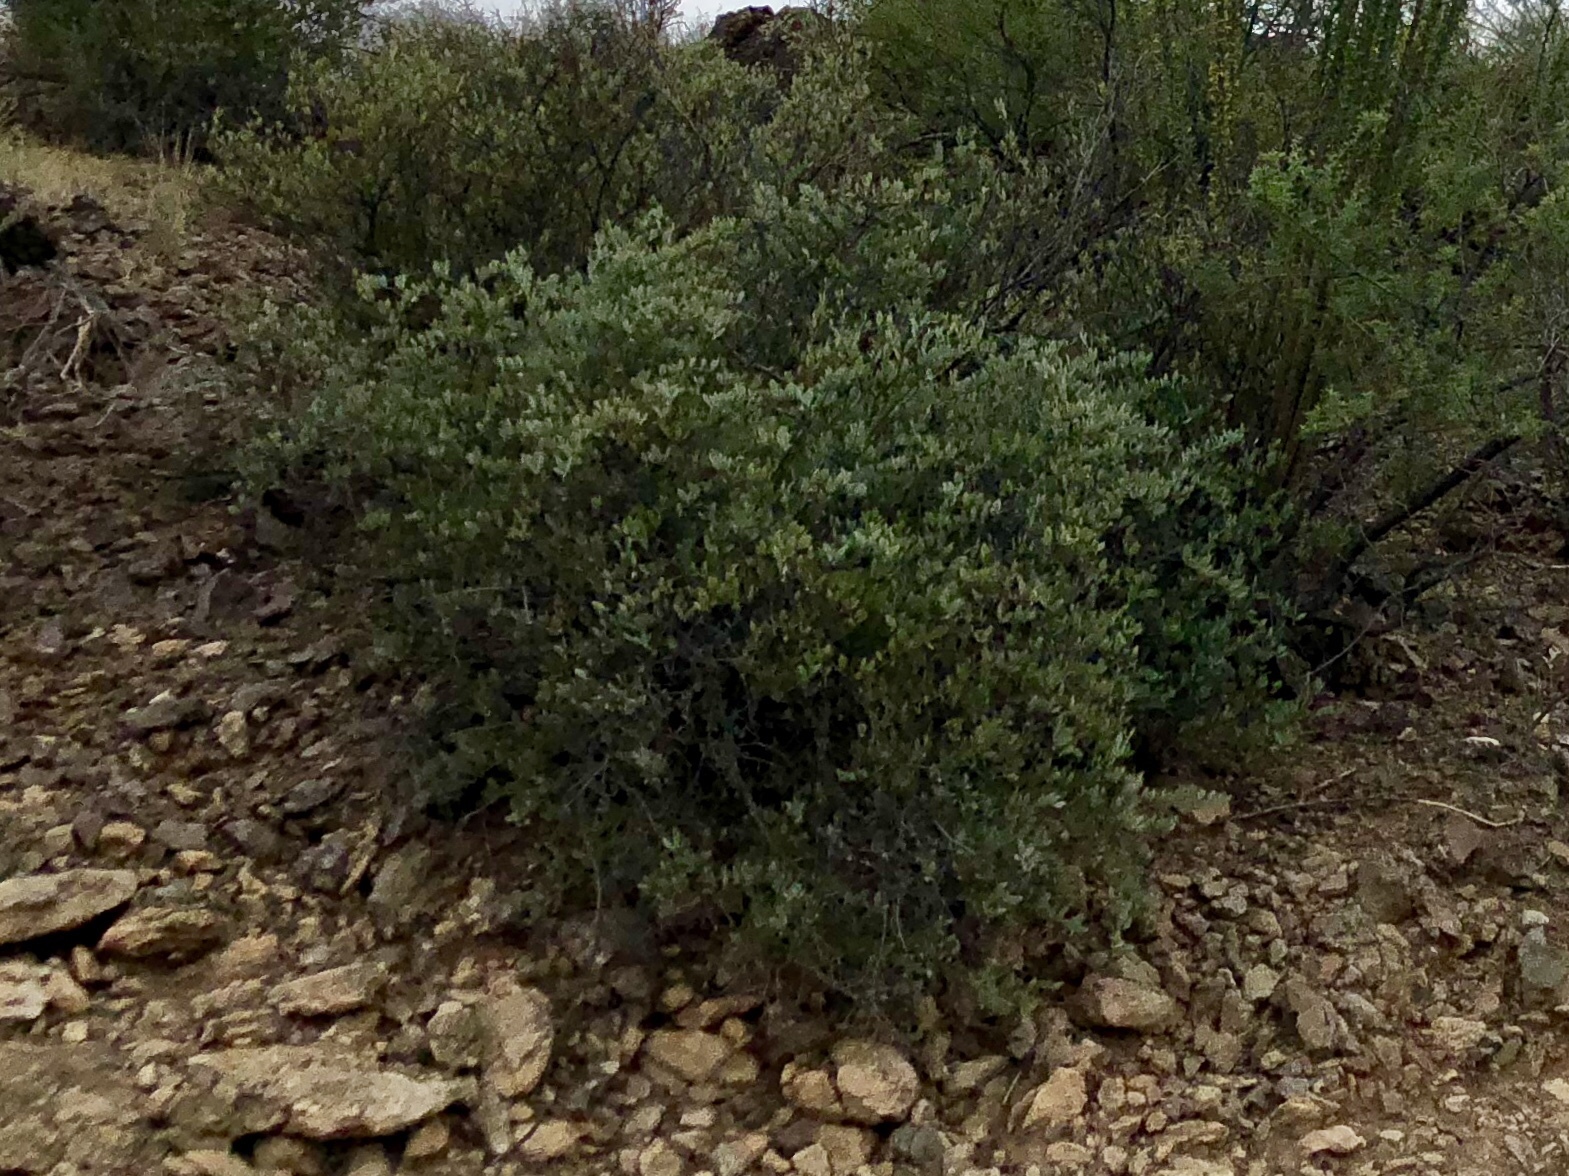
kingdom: Plantae
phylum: Tracheophyta
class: Magnoliopsida
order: Caryophyllales
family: Simmondsiaceae
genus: Simmondsia
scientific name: Simmondsia chinensis
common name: Jojoba
